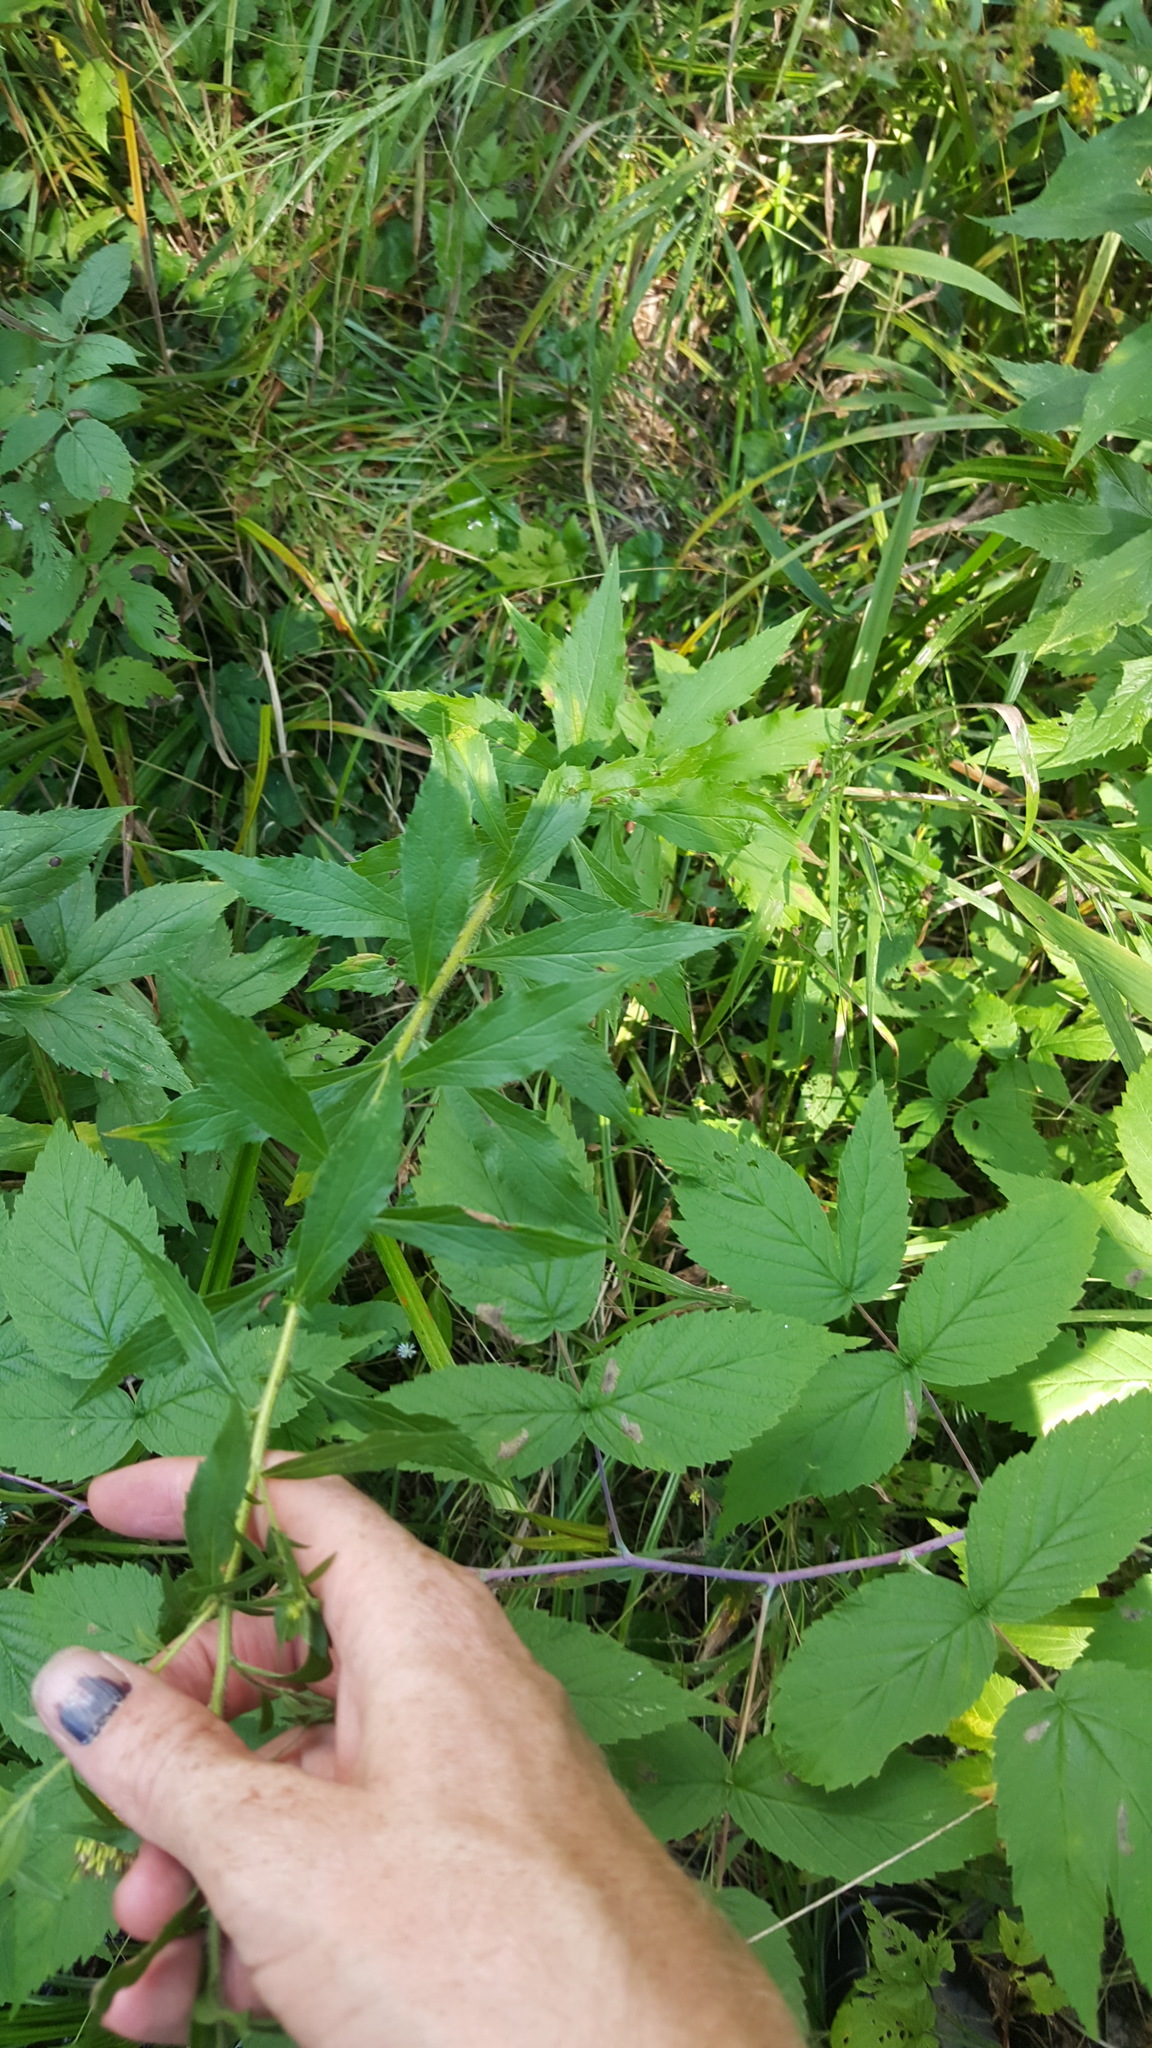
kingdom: Plantae
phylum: Tracheophyta
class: Magnoliopsida
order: Asterales
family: Asteraceae
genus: Solidago
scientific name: Solidago rugosa
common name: Rough-stemmed goldenrod
